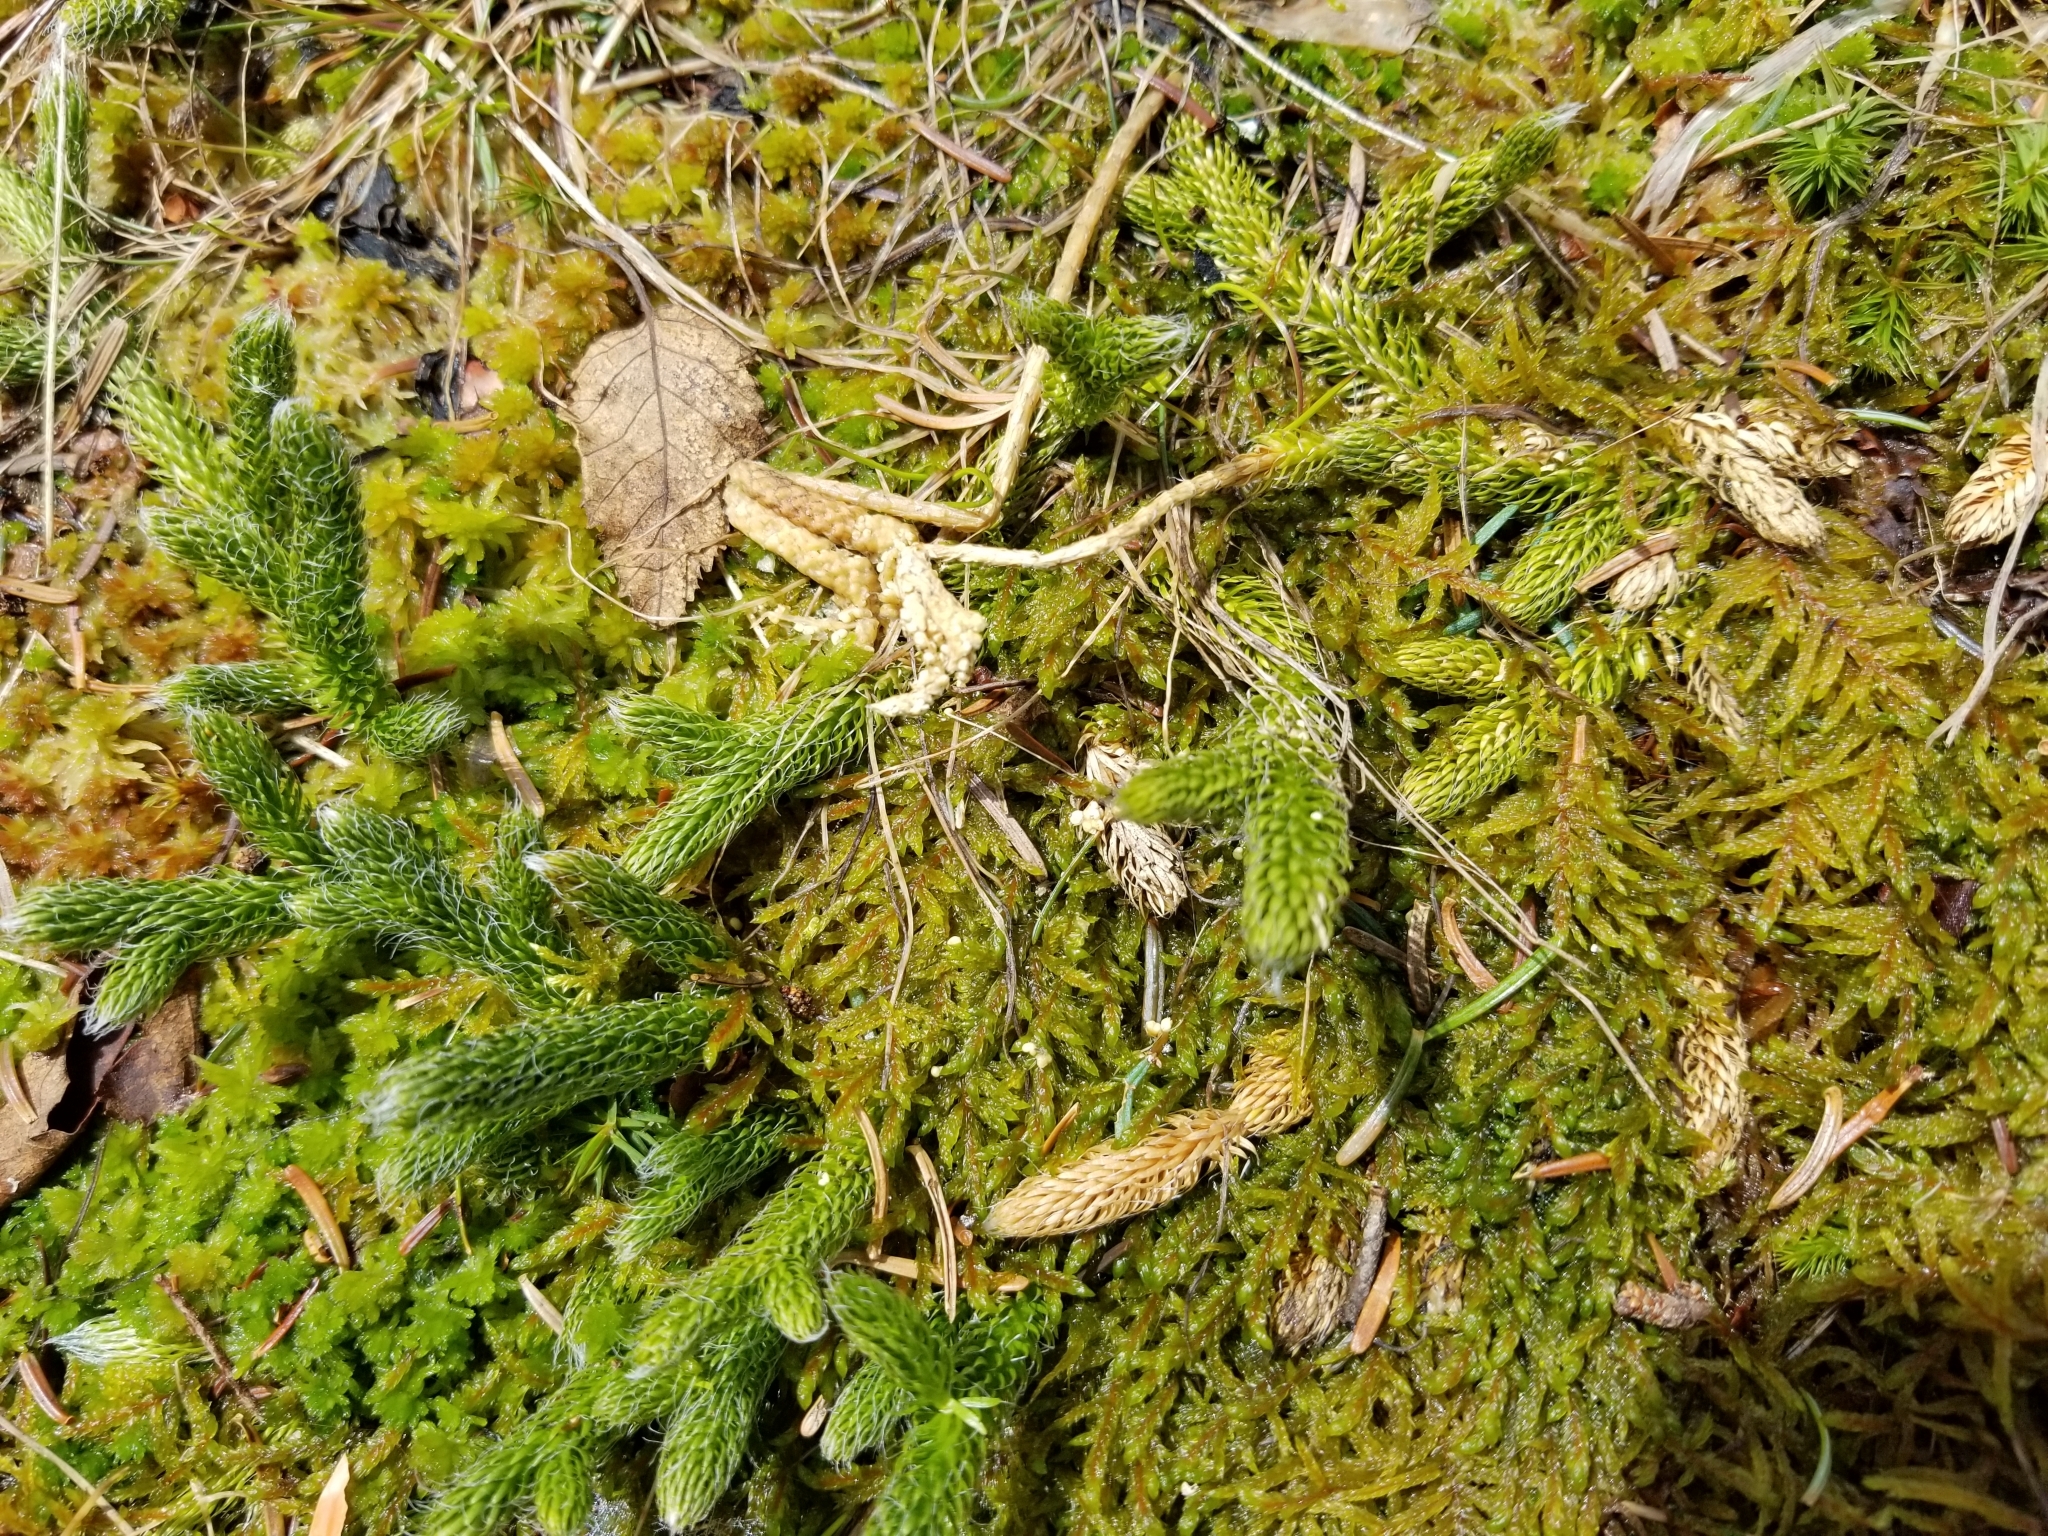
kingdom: Plantae
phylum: Tracheophyta
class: Lycopodiopsida
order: Lycopodiales
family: Lycopodiaceae
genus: Lycopodium
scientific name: Lycopodium clavatum
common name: Stag's-horn clubmoss
